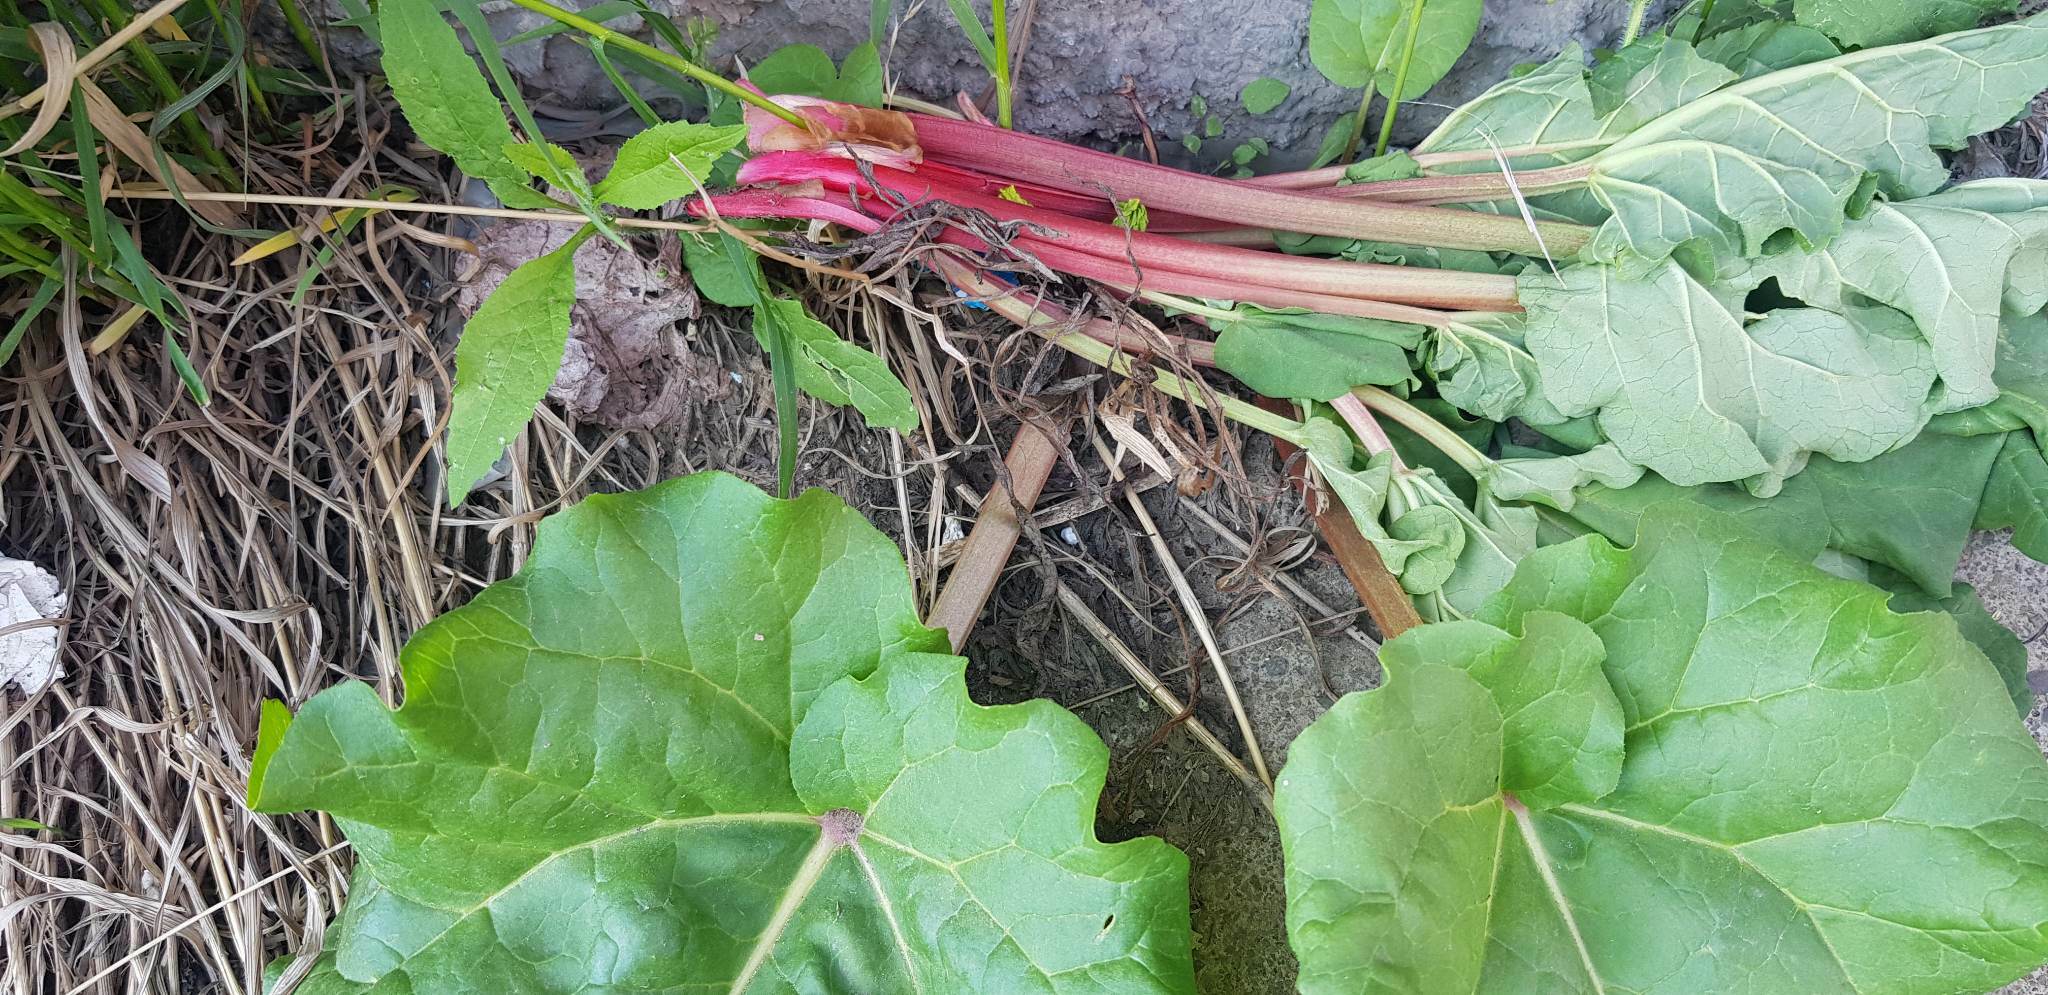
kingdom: Plantae
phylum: Tracheophyta
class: Magnoliopsida
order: Caryophyllales
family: Polygonaceae
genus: Rheum
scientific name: Rheum rhabarbarum
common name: Garden rhubarb
